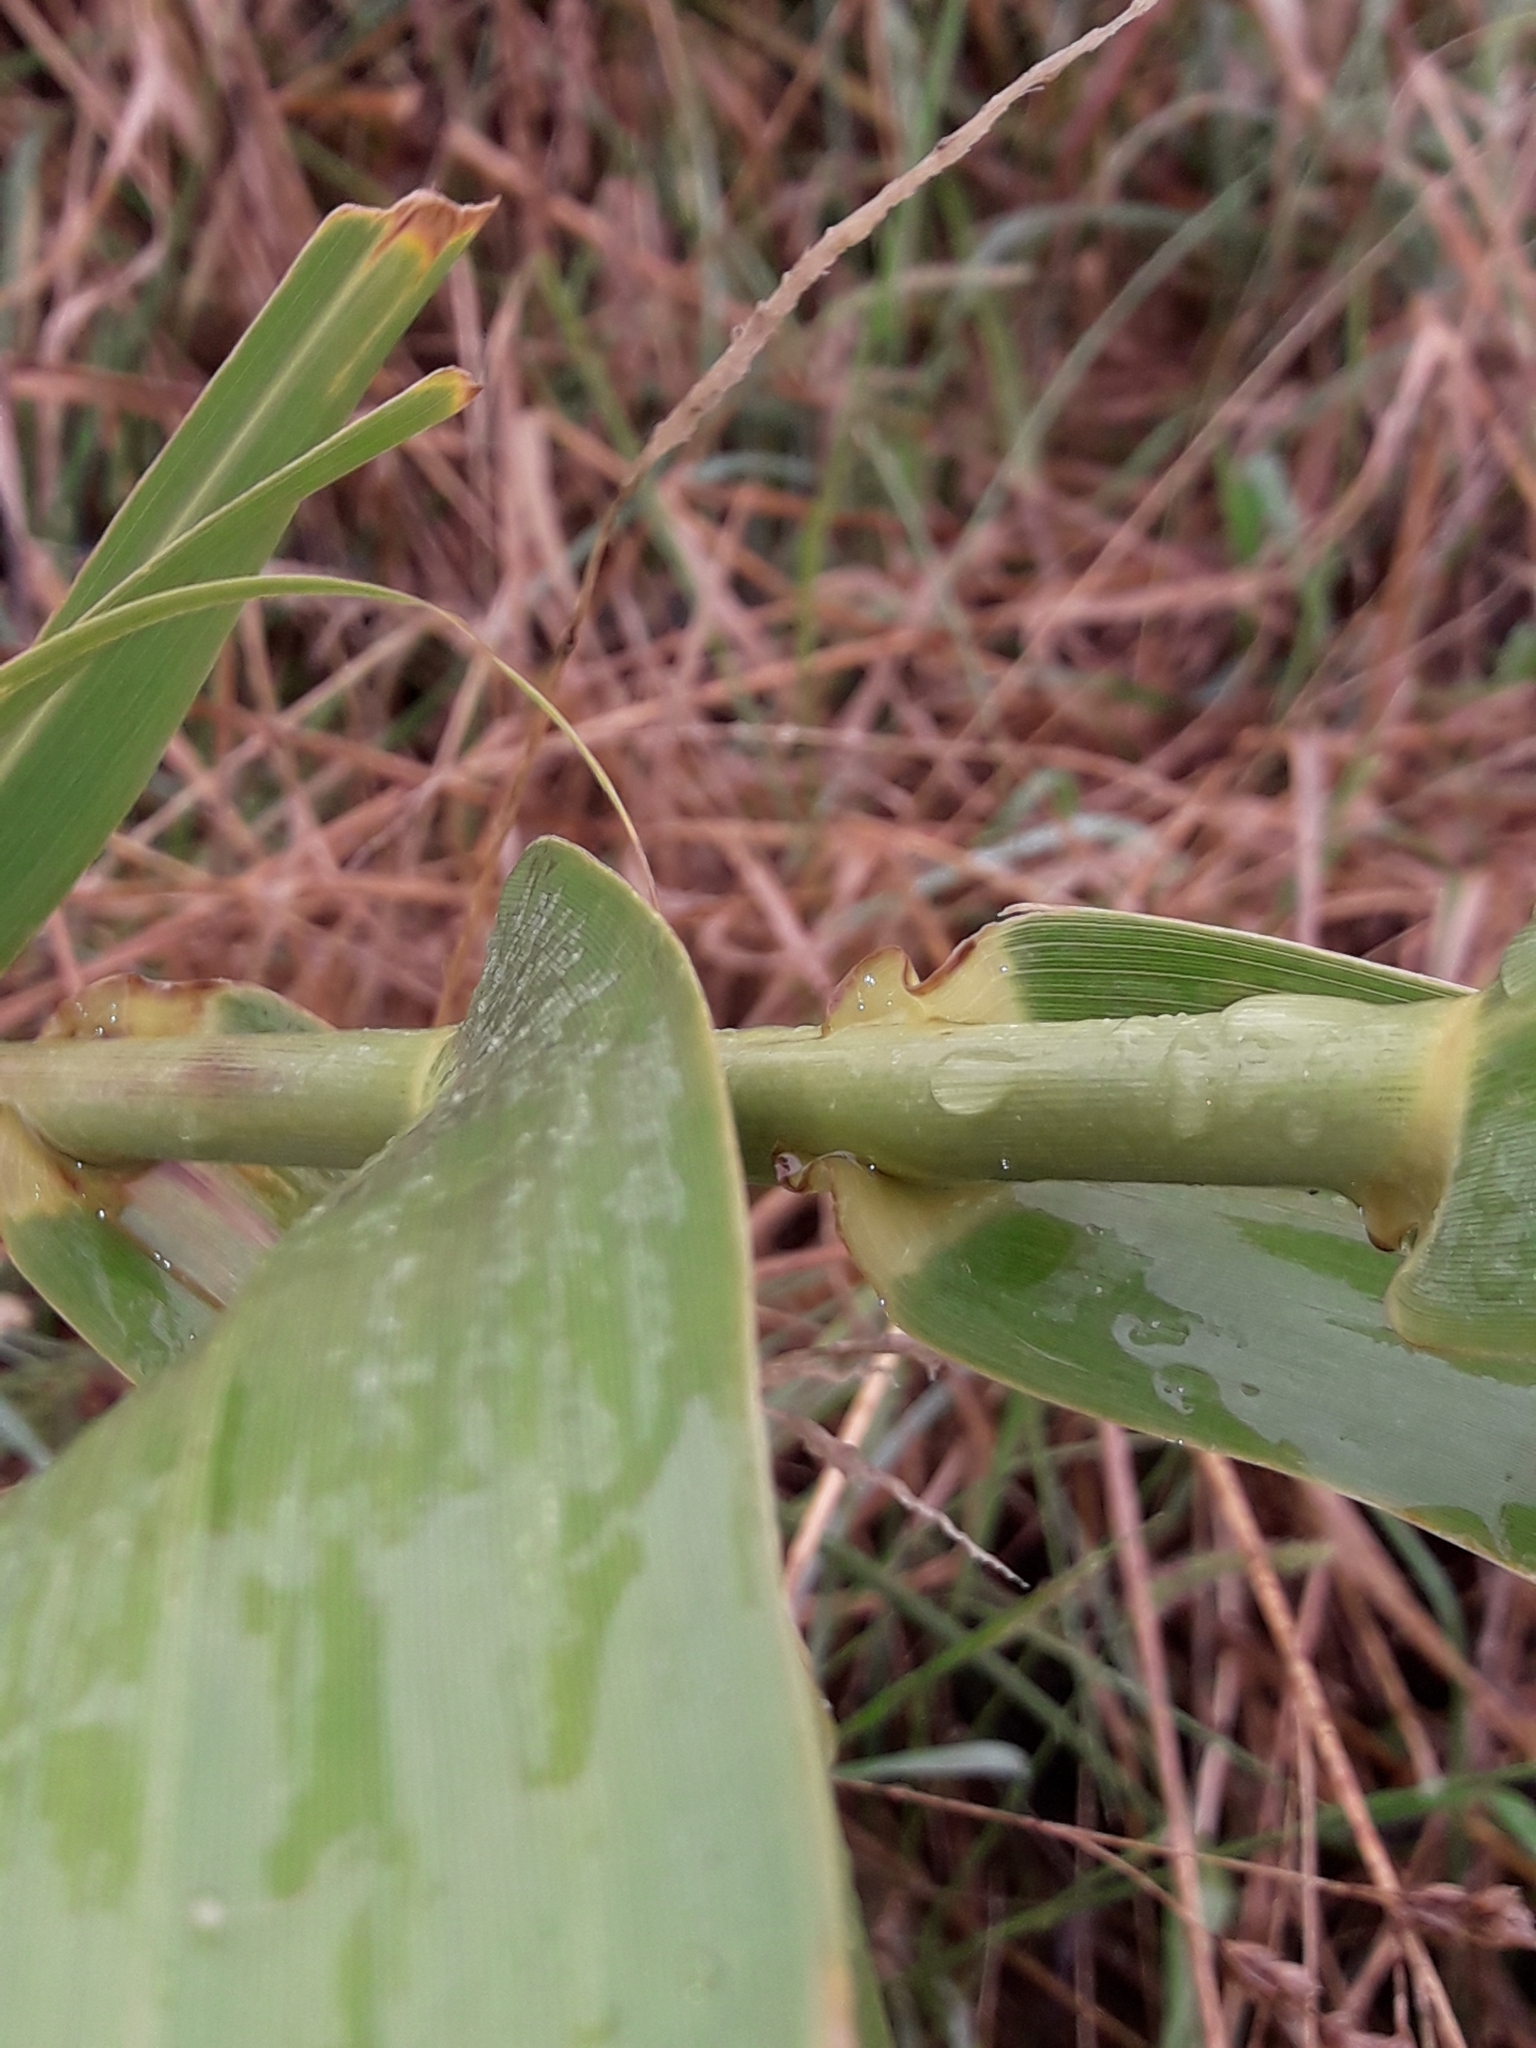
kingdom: Plantae
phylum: Tracheophyta
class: Liliopsida
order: Poales
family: Poaceae
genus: Arundo
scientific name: Arundo donax
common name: Giant reed
